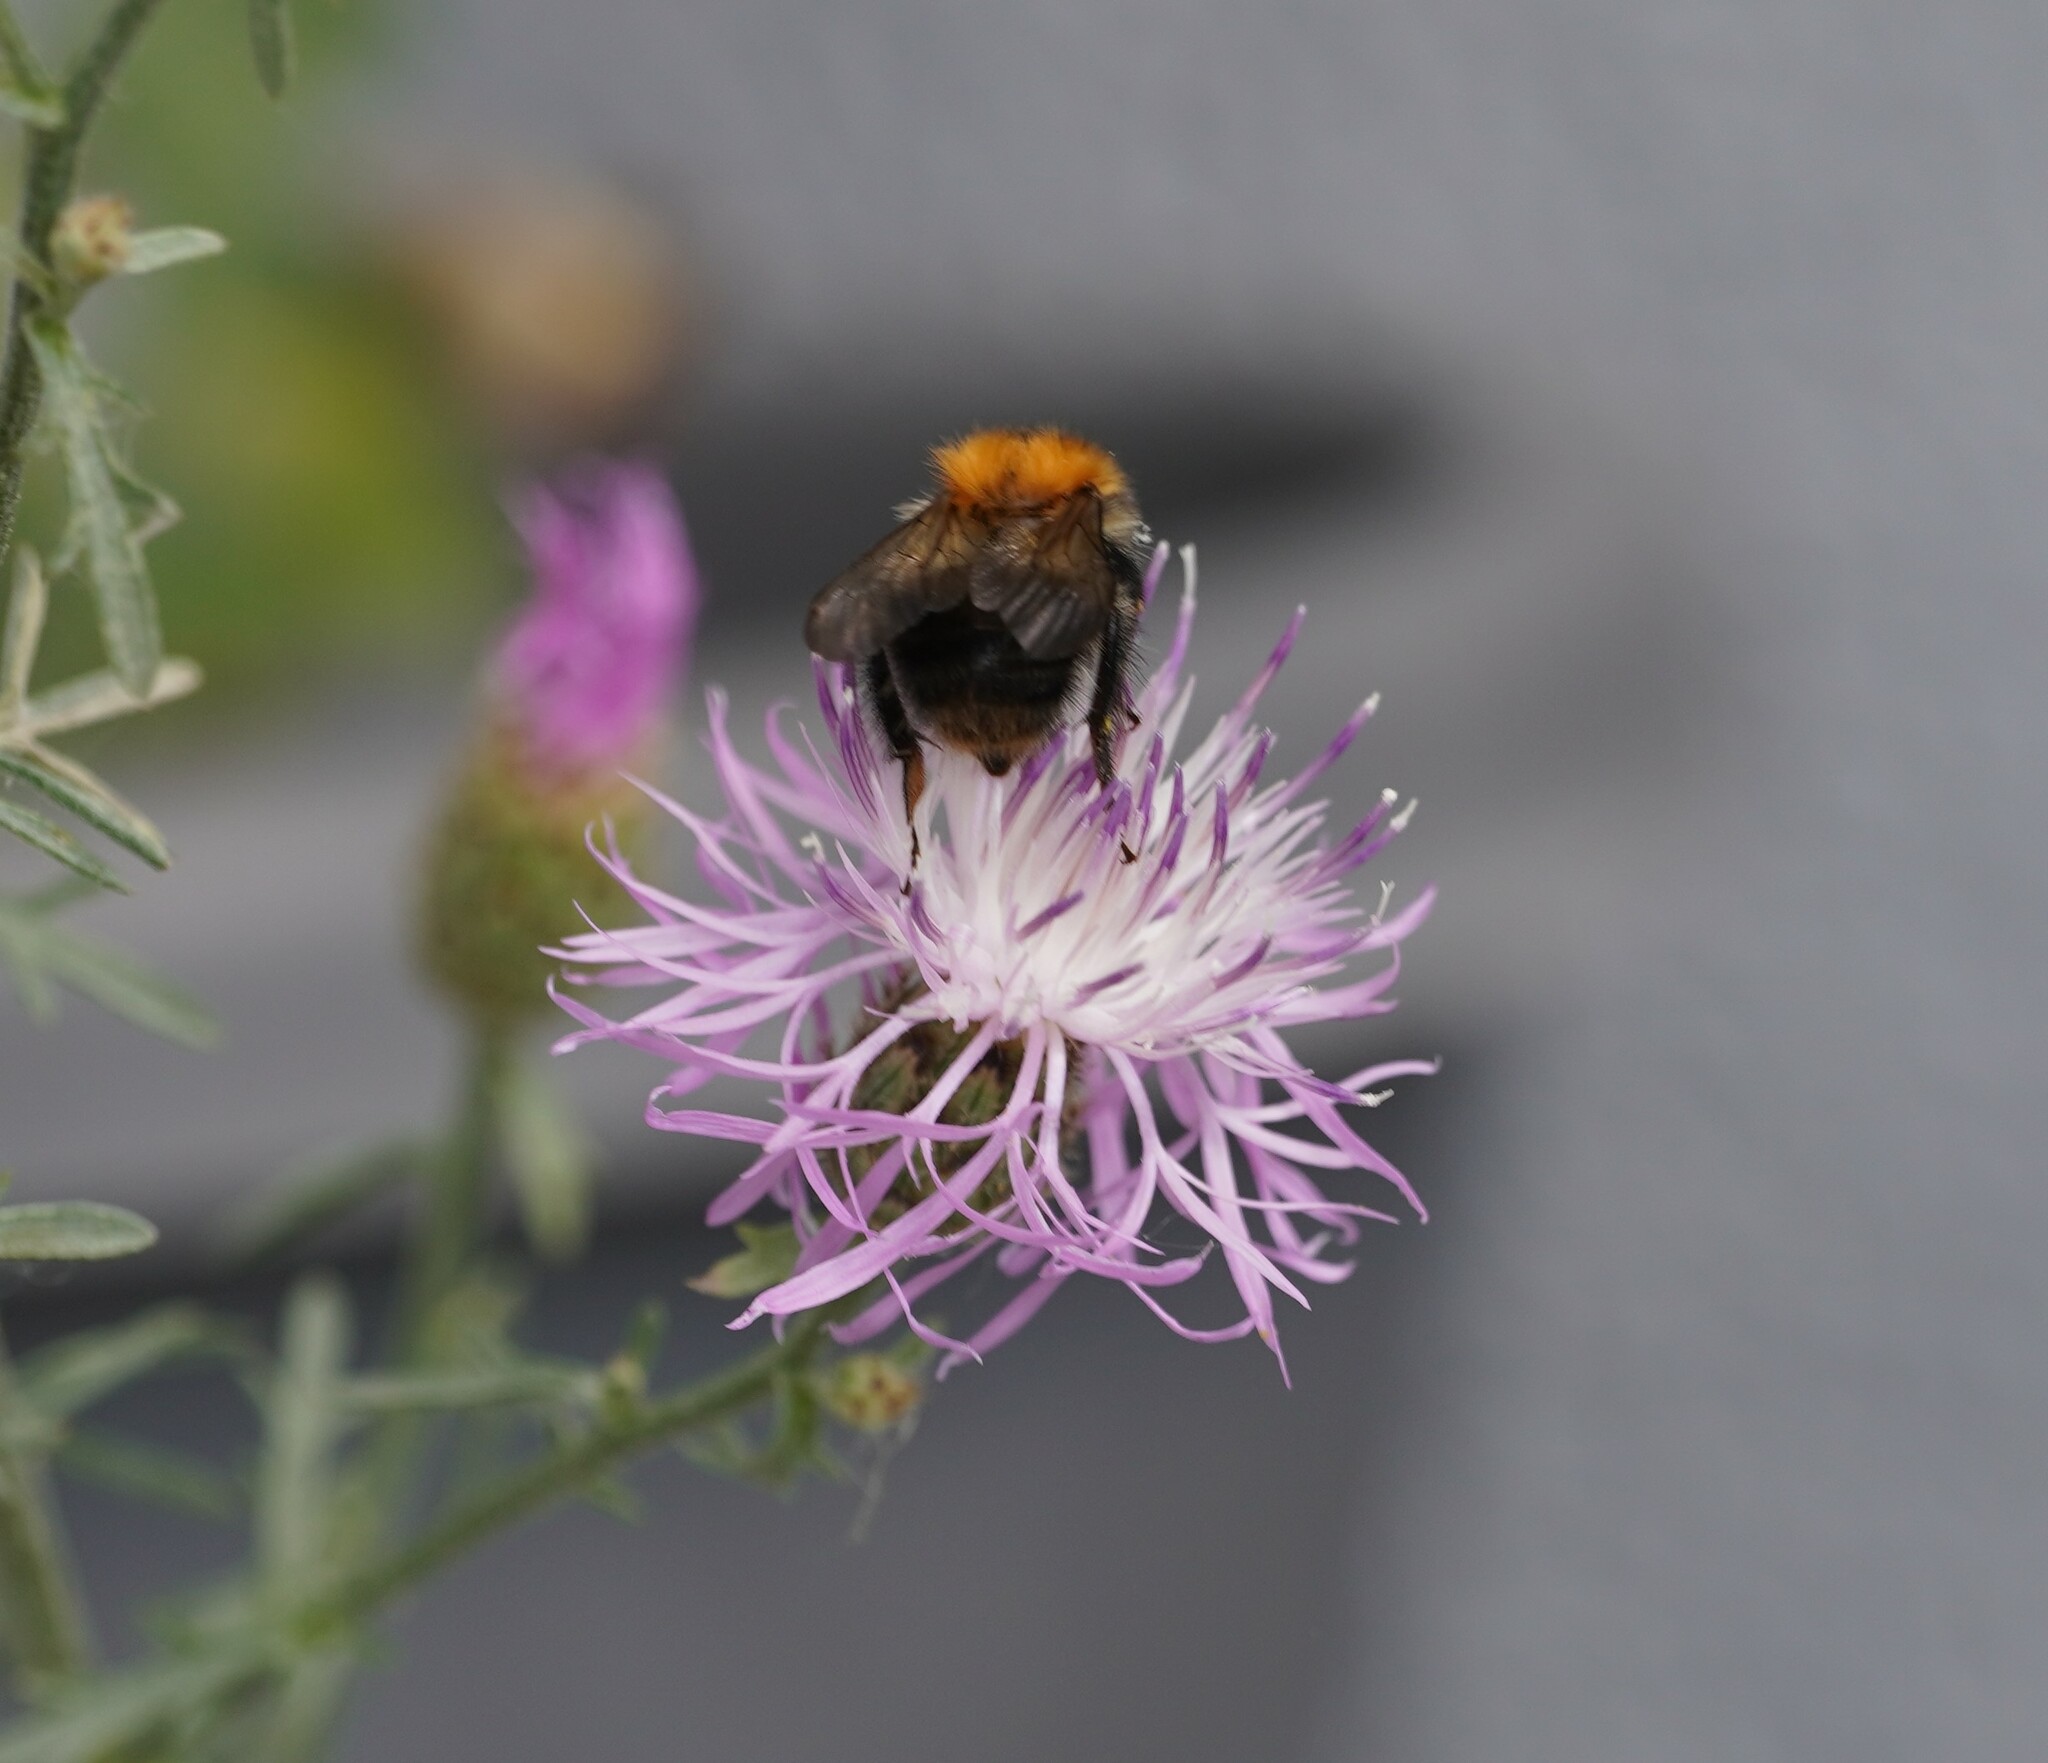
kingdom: Animalia
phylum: Arthropoda
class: Insecta
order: Hymenoptera
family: Apidae
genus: Bombus
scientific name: Bombus pascuorum
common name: Common carder bee
